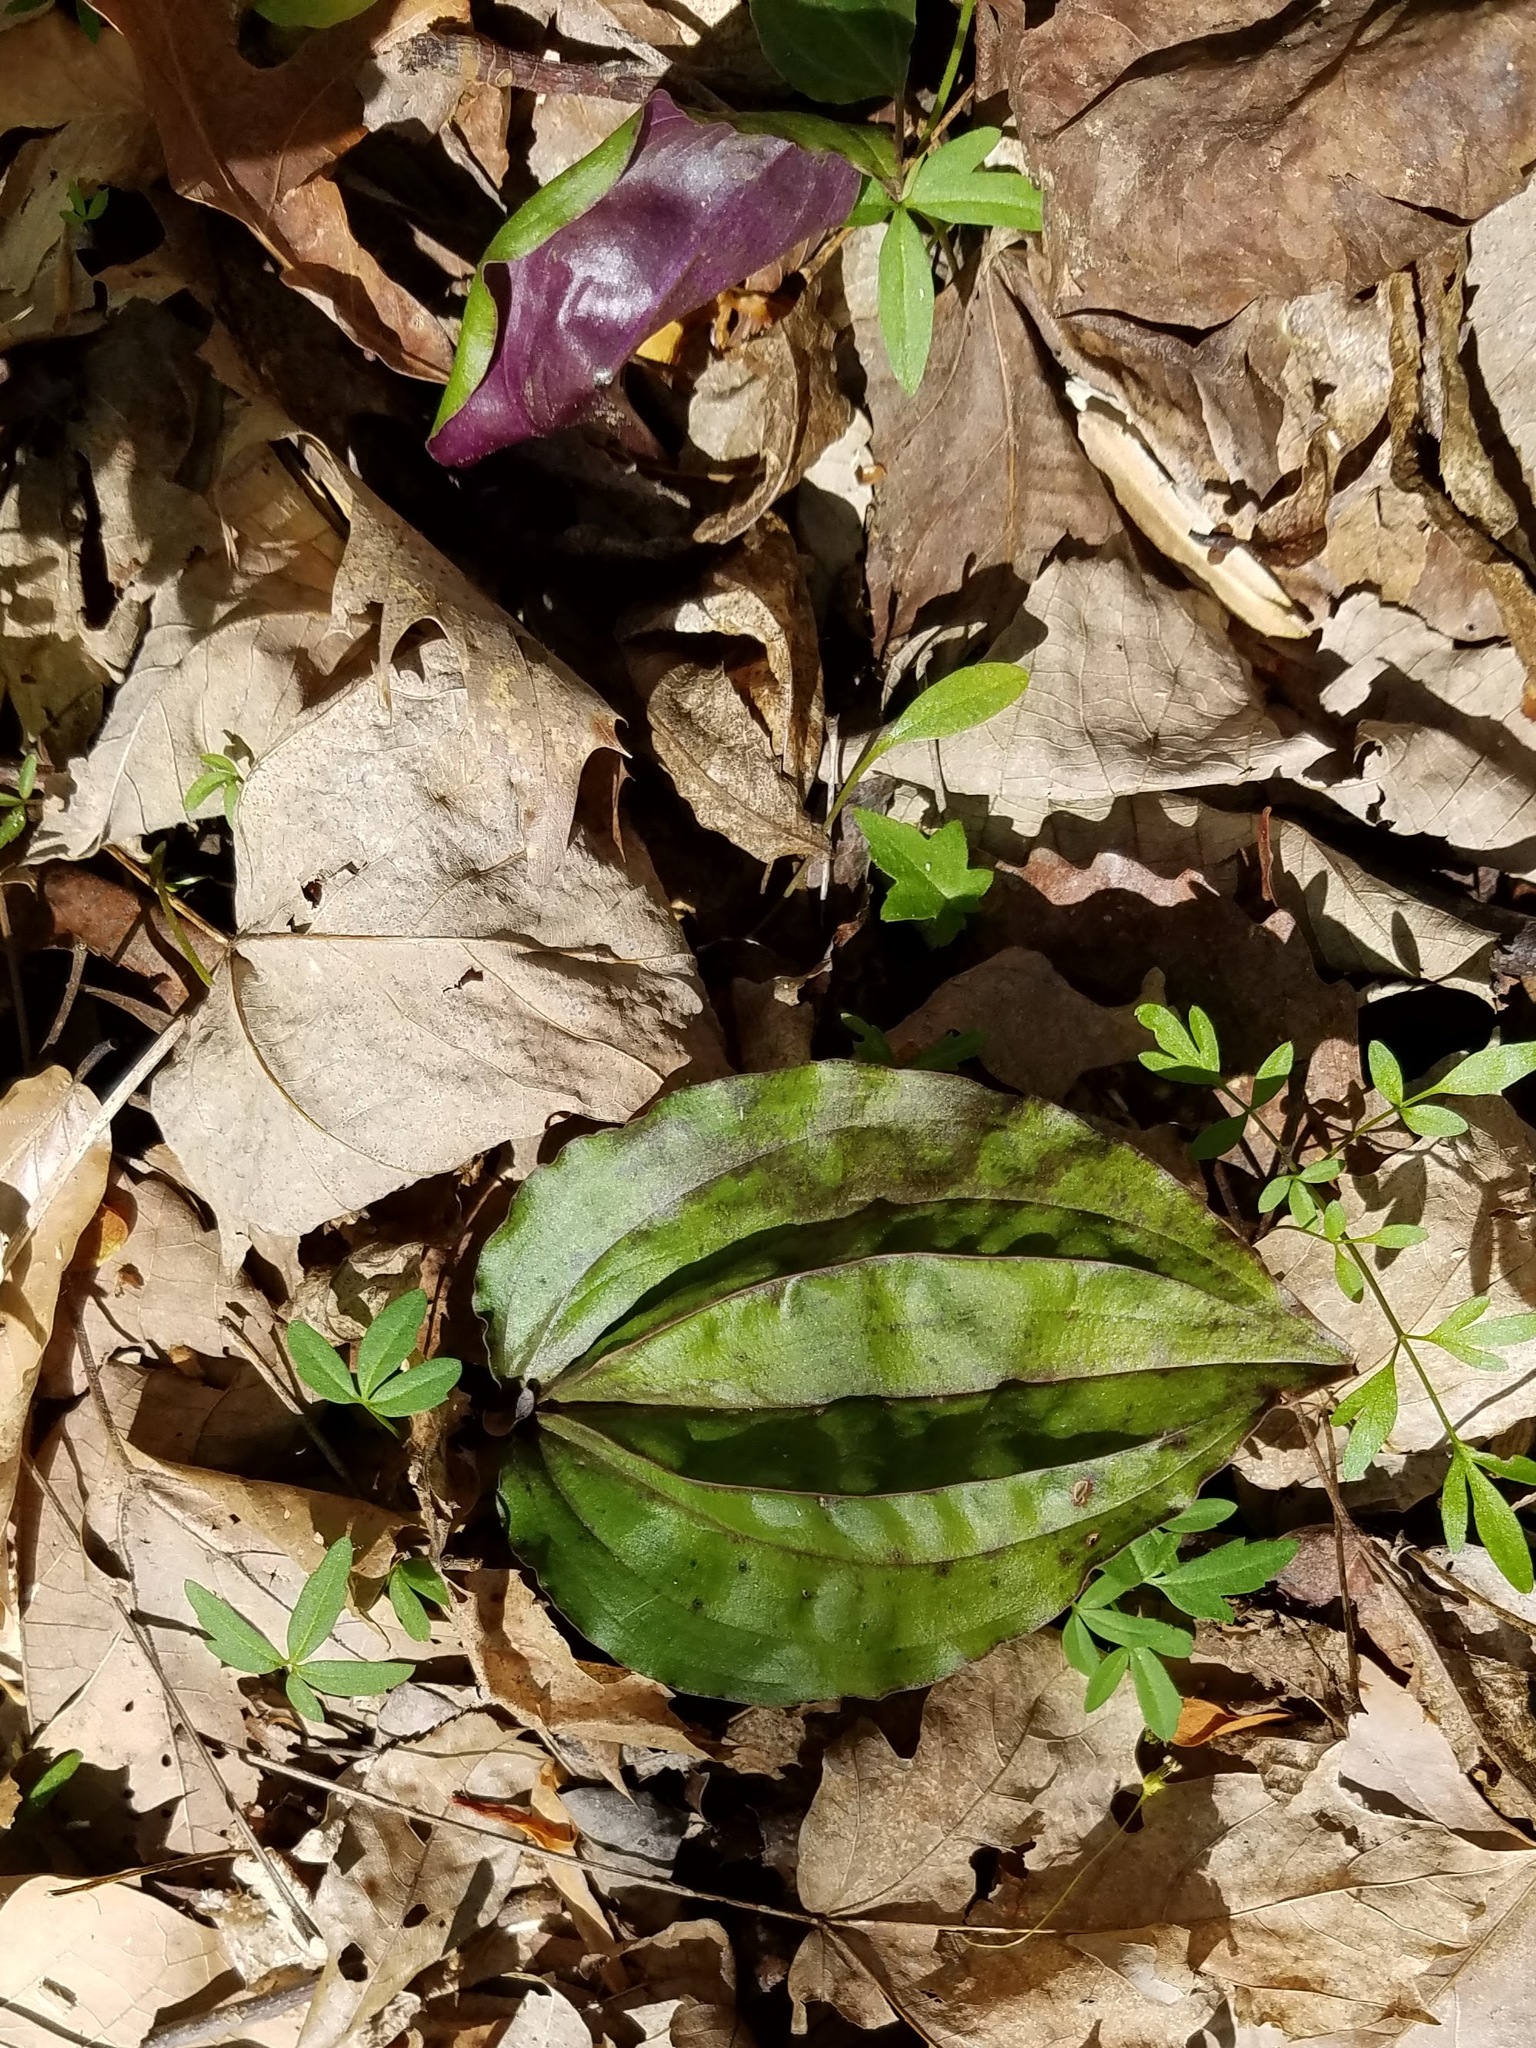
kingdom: Plantae
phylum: Tracheophyta
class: Liliopsida
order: Asparagales
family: Orchidaceae
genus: Tipularia
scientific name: Tipularia discolor
